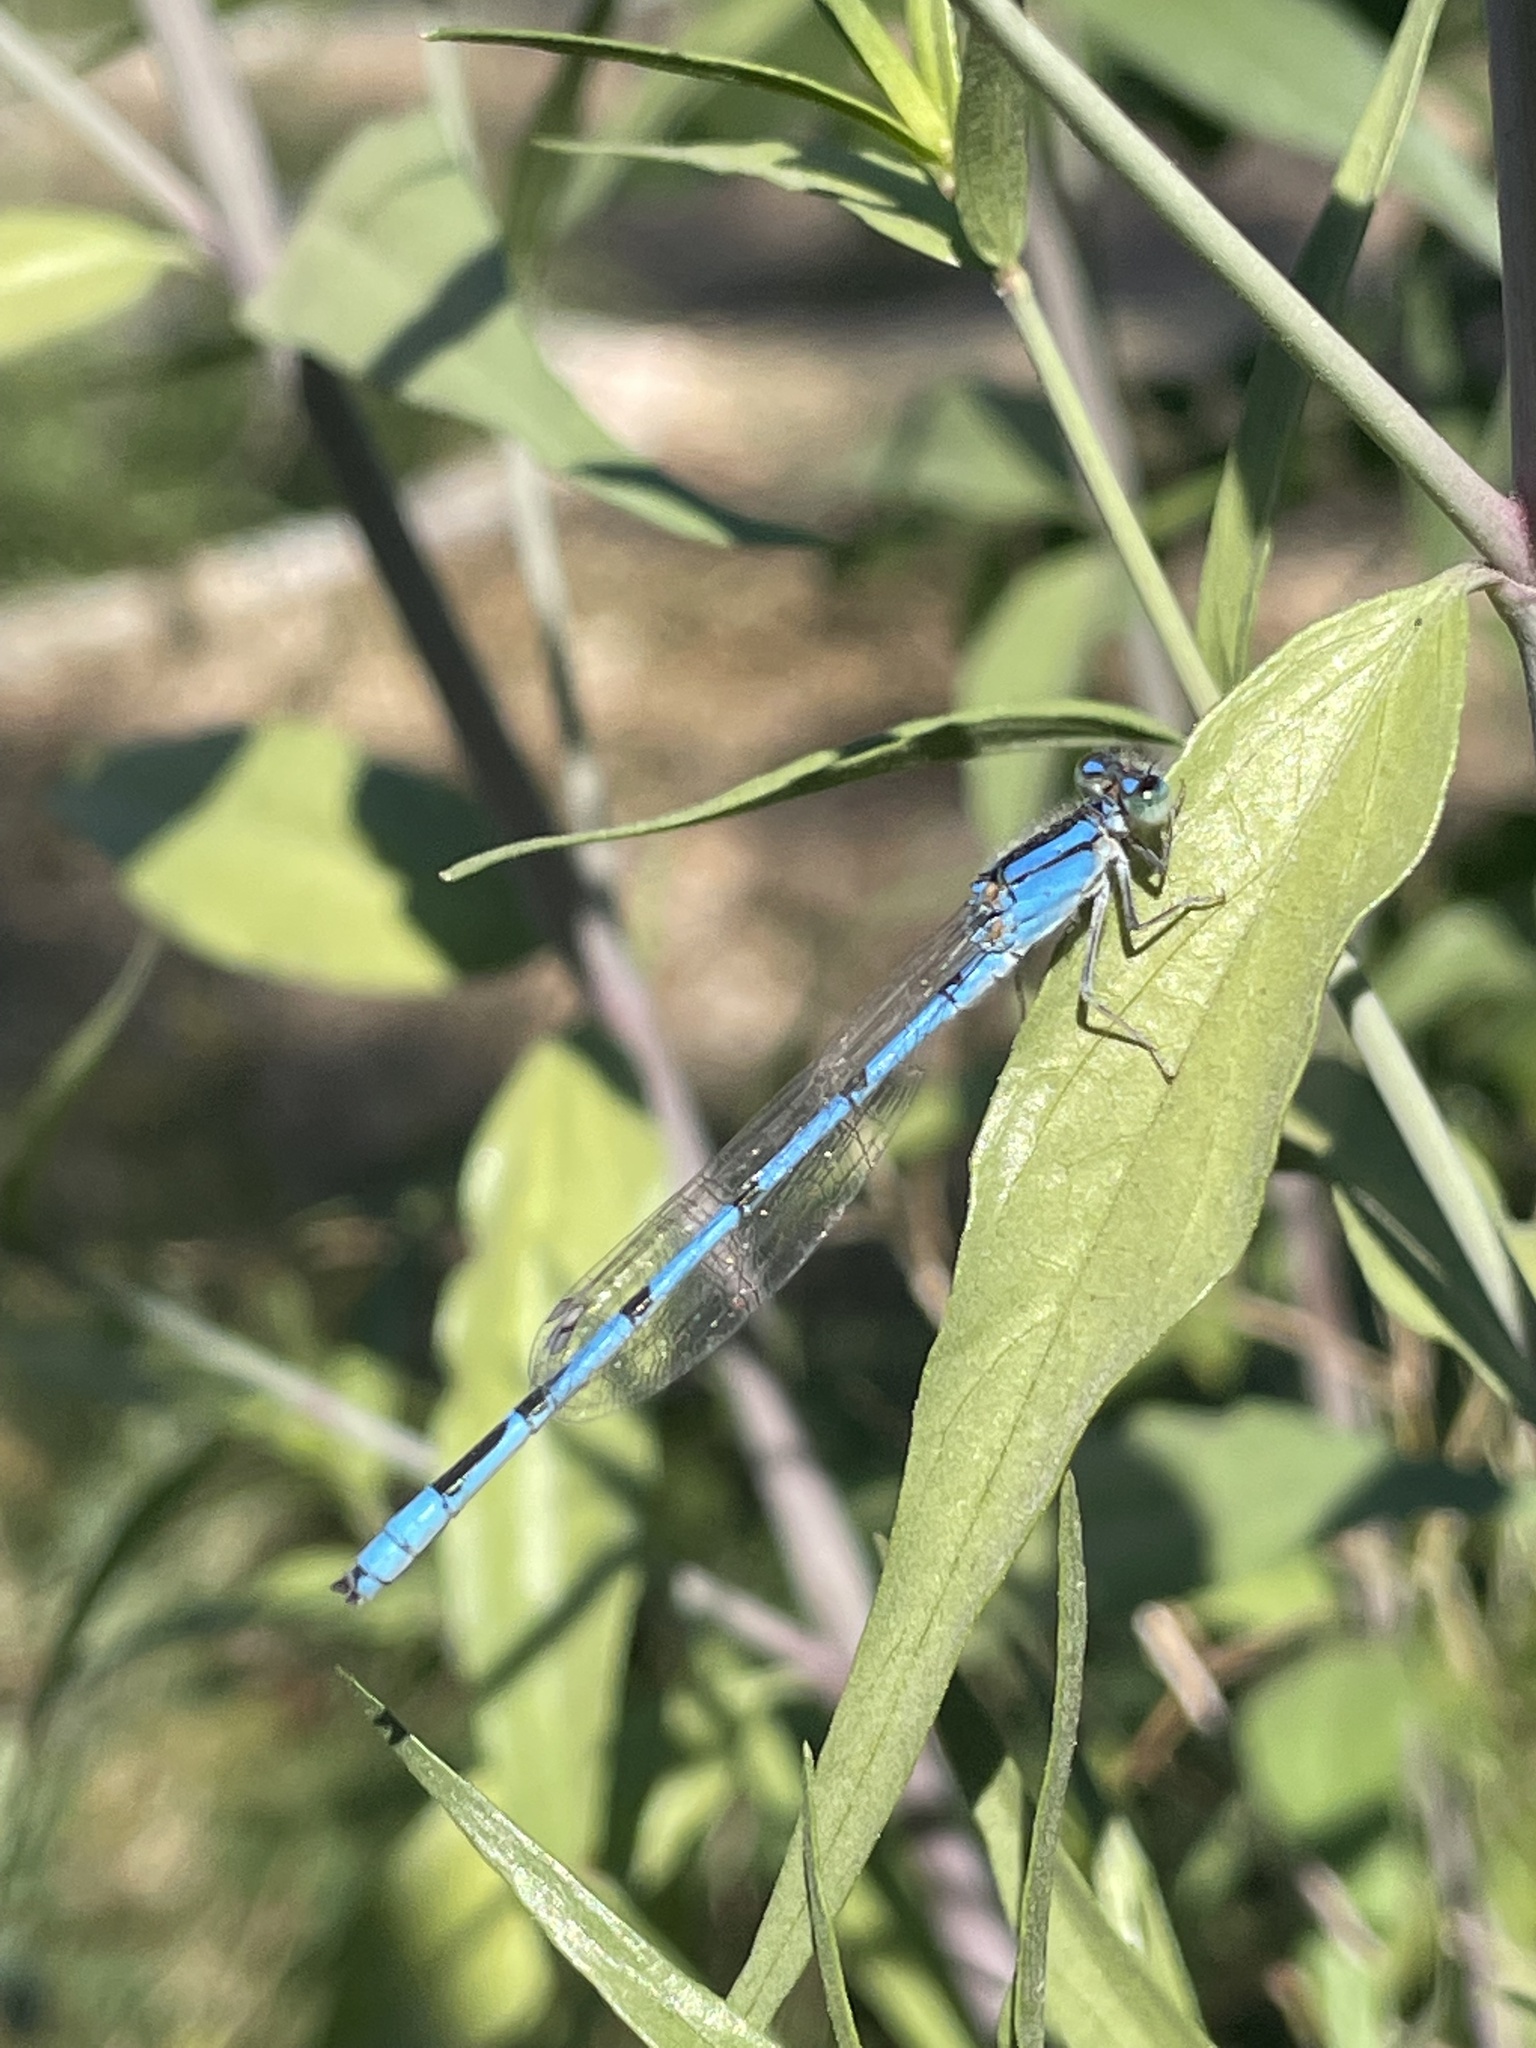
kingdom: Animalia
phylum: Arthropoda
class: Insecta
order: Odonata
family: Coenagrionidae
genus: Enallagma
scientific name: Enallagma civile
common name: Damselfly
